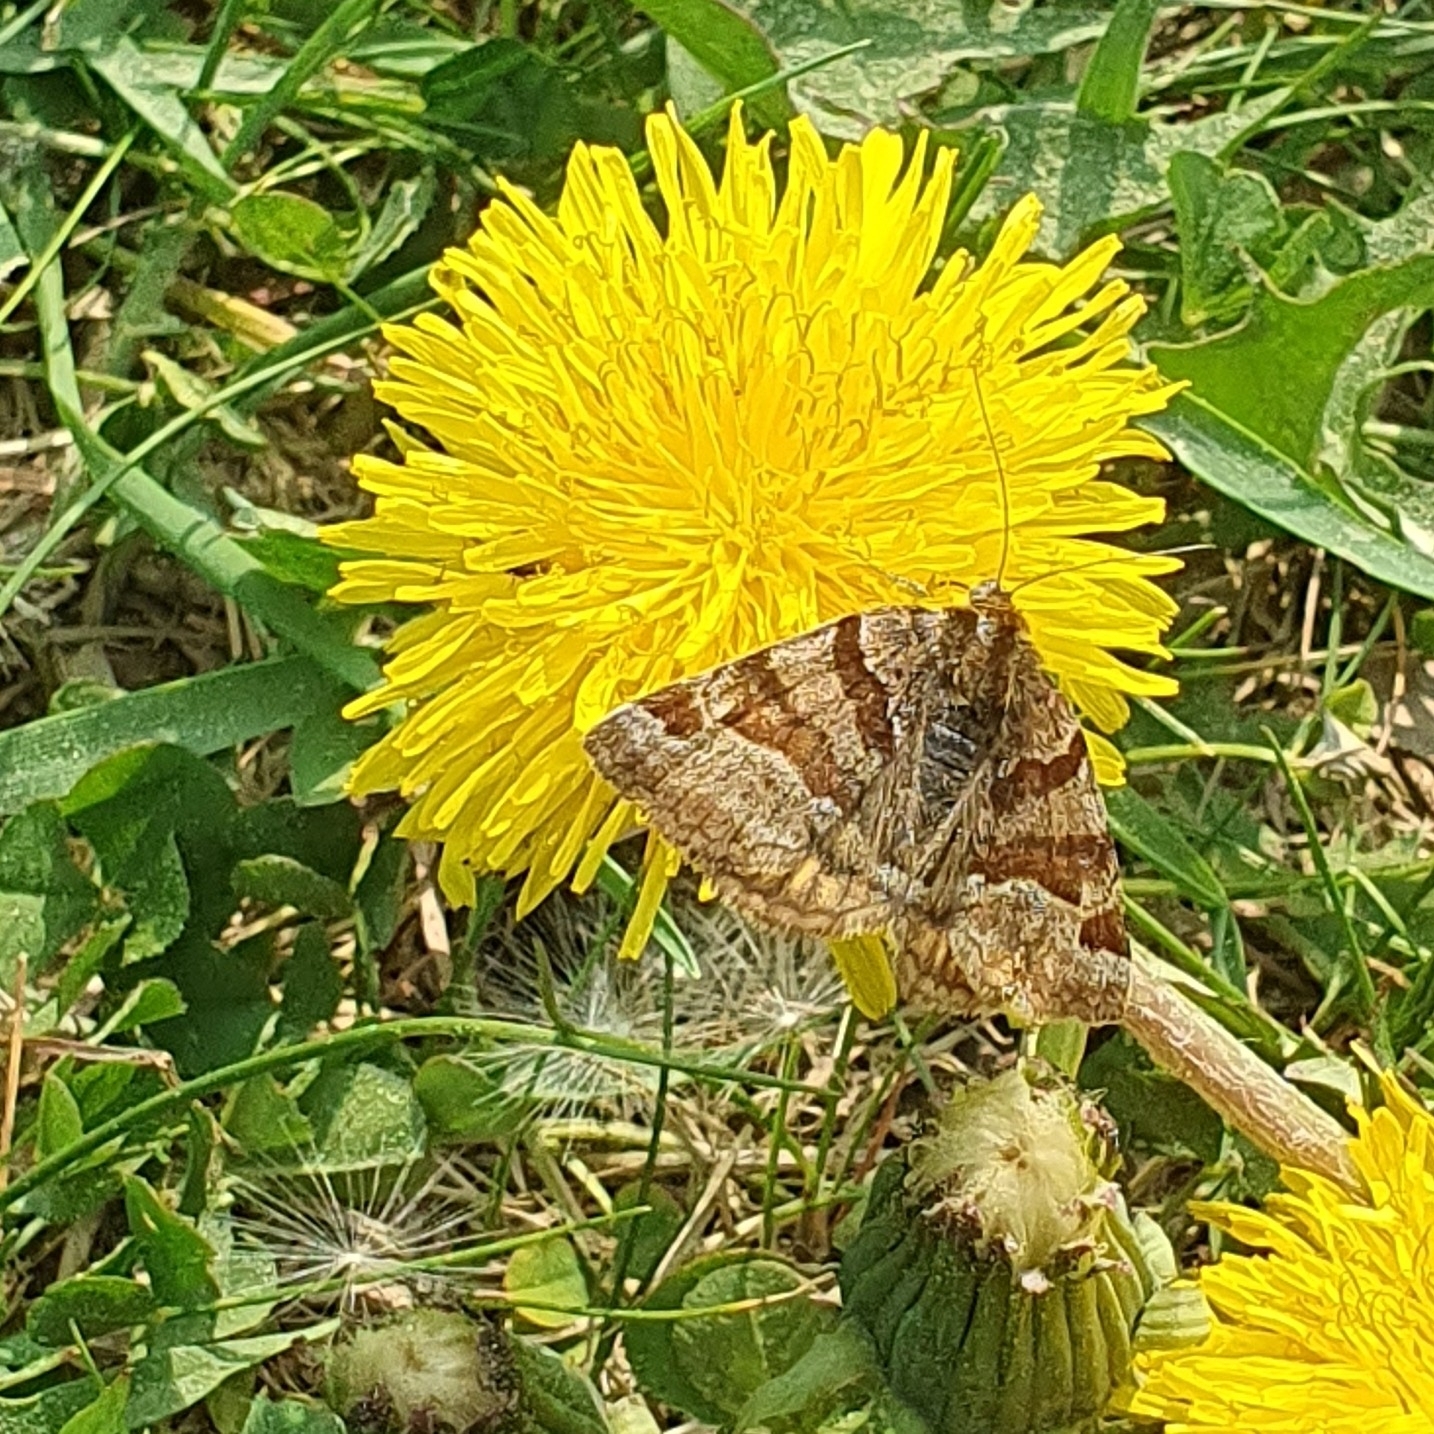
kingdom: Animalia
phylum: Arthropoda
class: Insecta
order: Lepidoptera
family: Erebidae
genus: Euclidia
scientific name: Euclidia glyphica
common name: Burnet companion
